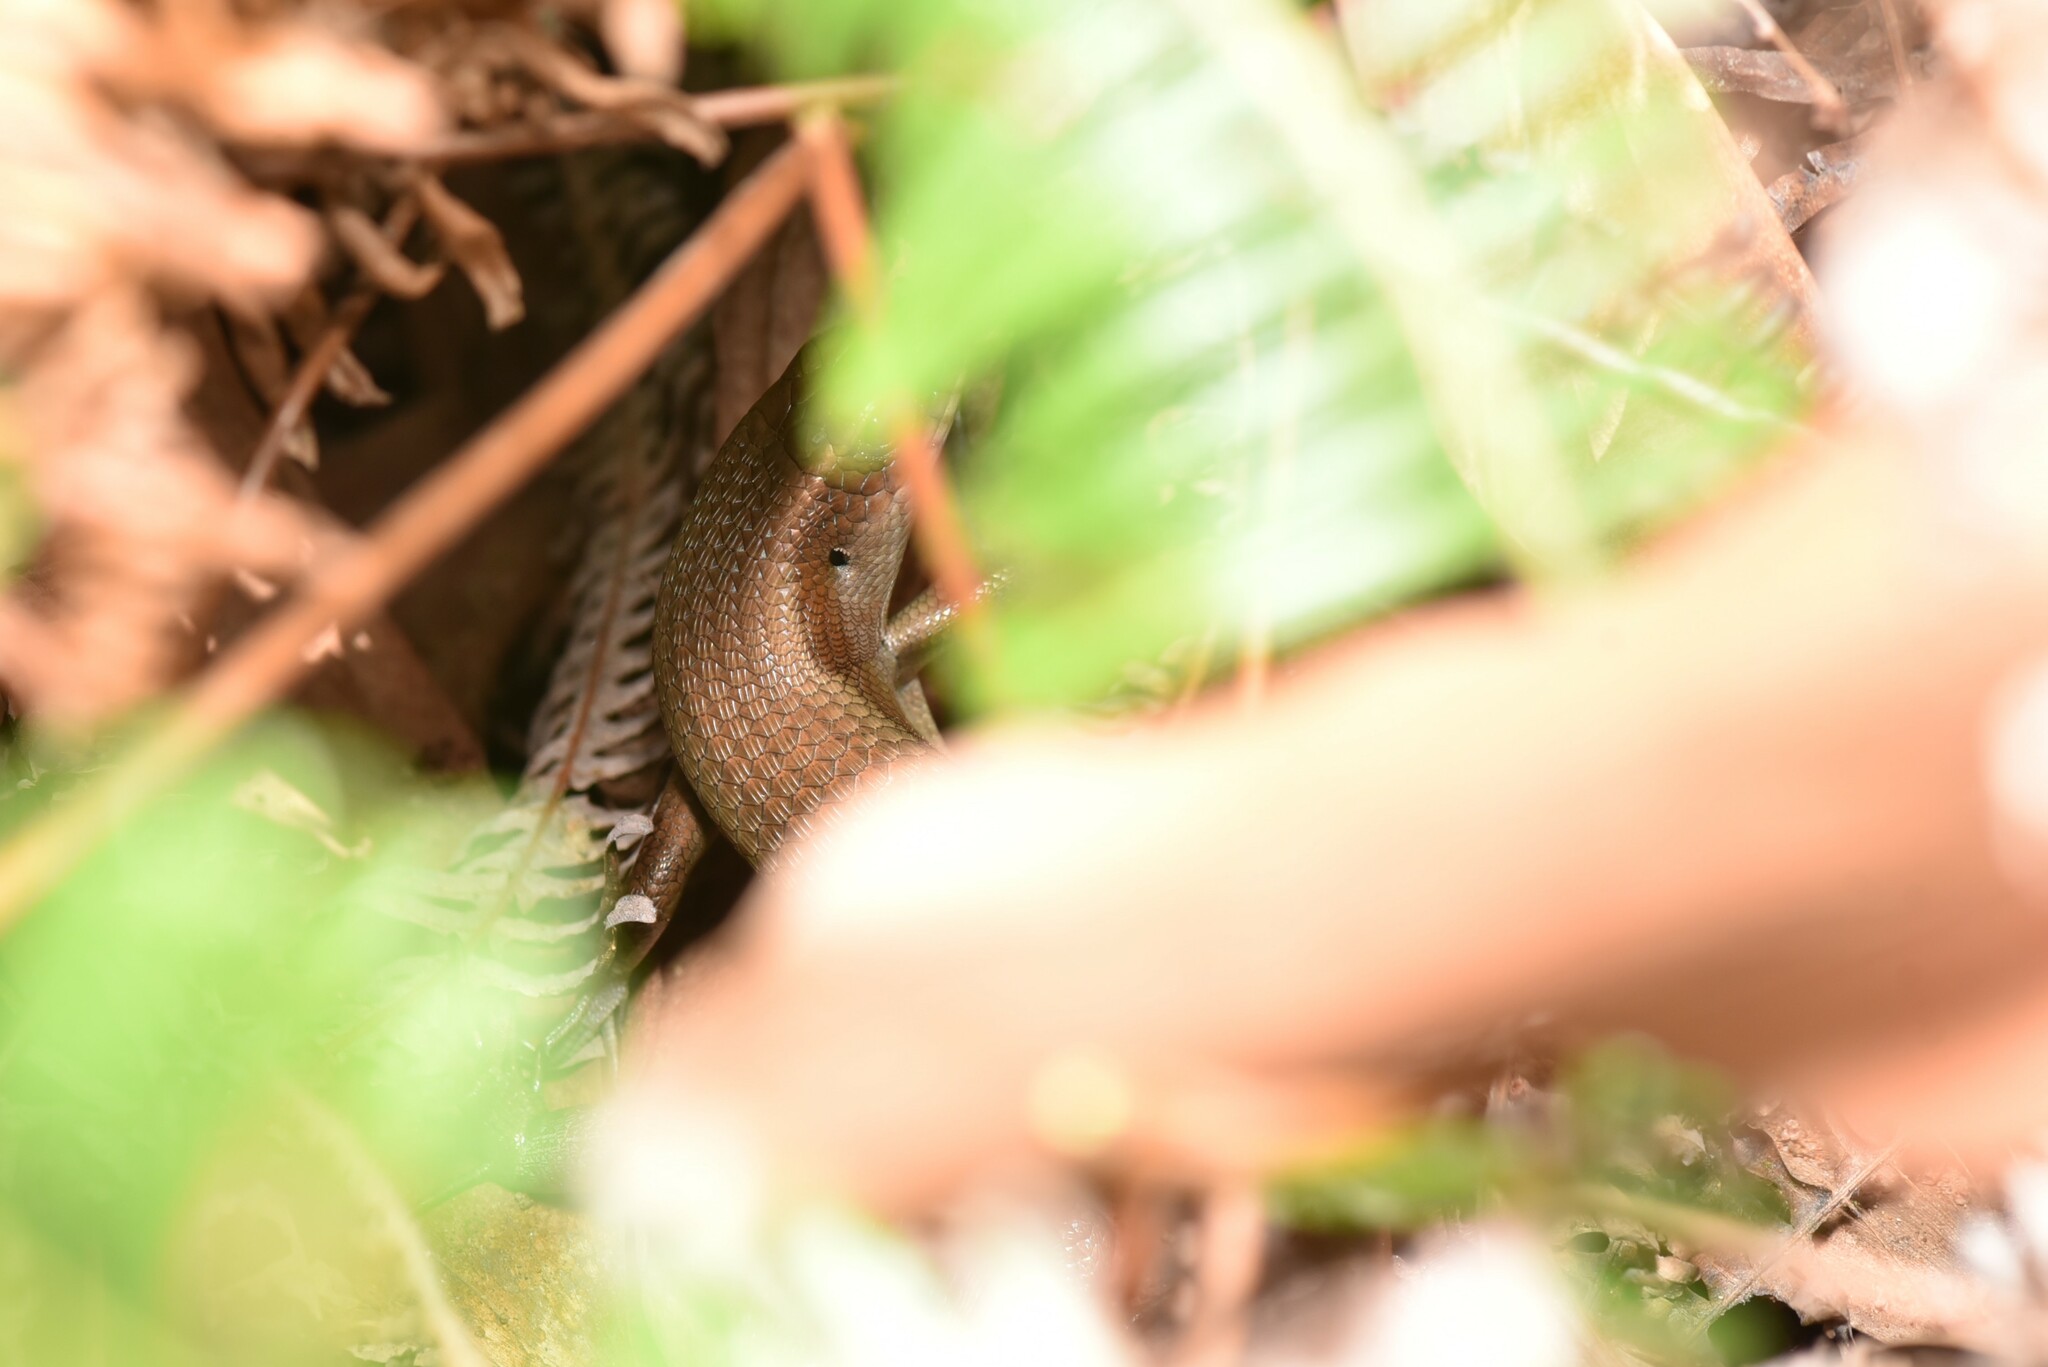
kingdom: Animalia
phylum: Chordata
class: Squamata
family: Scincidae
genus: Eutropis
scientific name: Eutropis multifasciata
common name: Common mabuya
